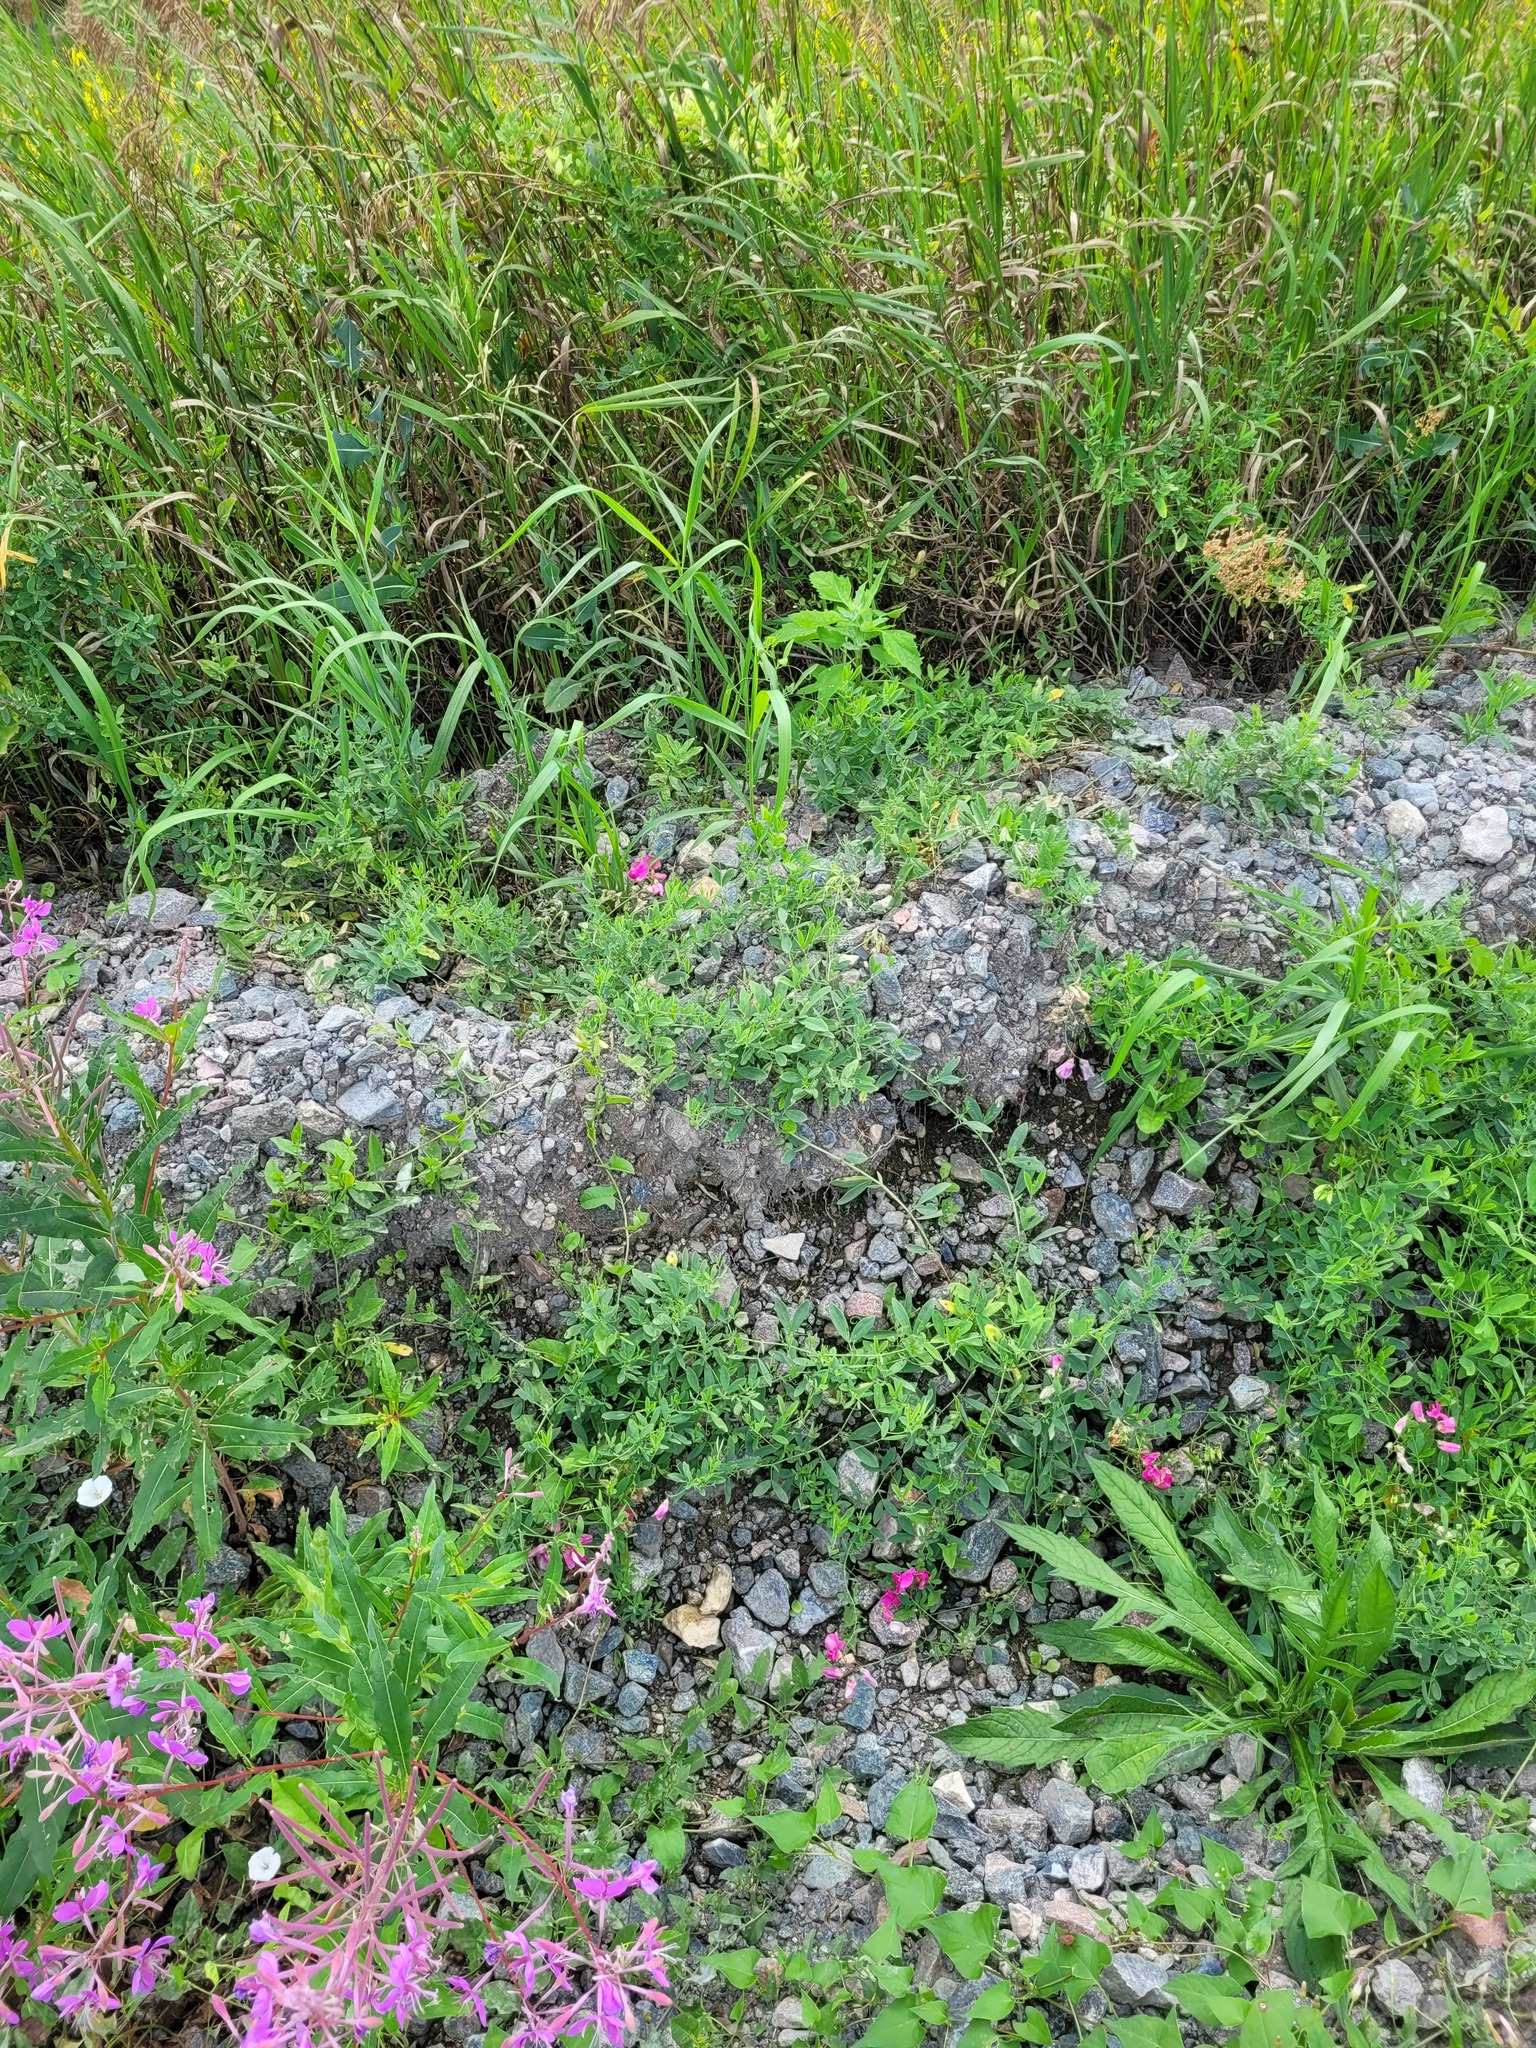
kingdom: Plantae
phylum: Tracheophyta
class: Magnoliopsida
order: Fabales
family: Fabaceae
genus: Lathyrus
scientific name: Lathyrus tuberosus
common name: Tuberous pea
